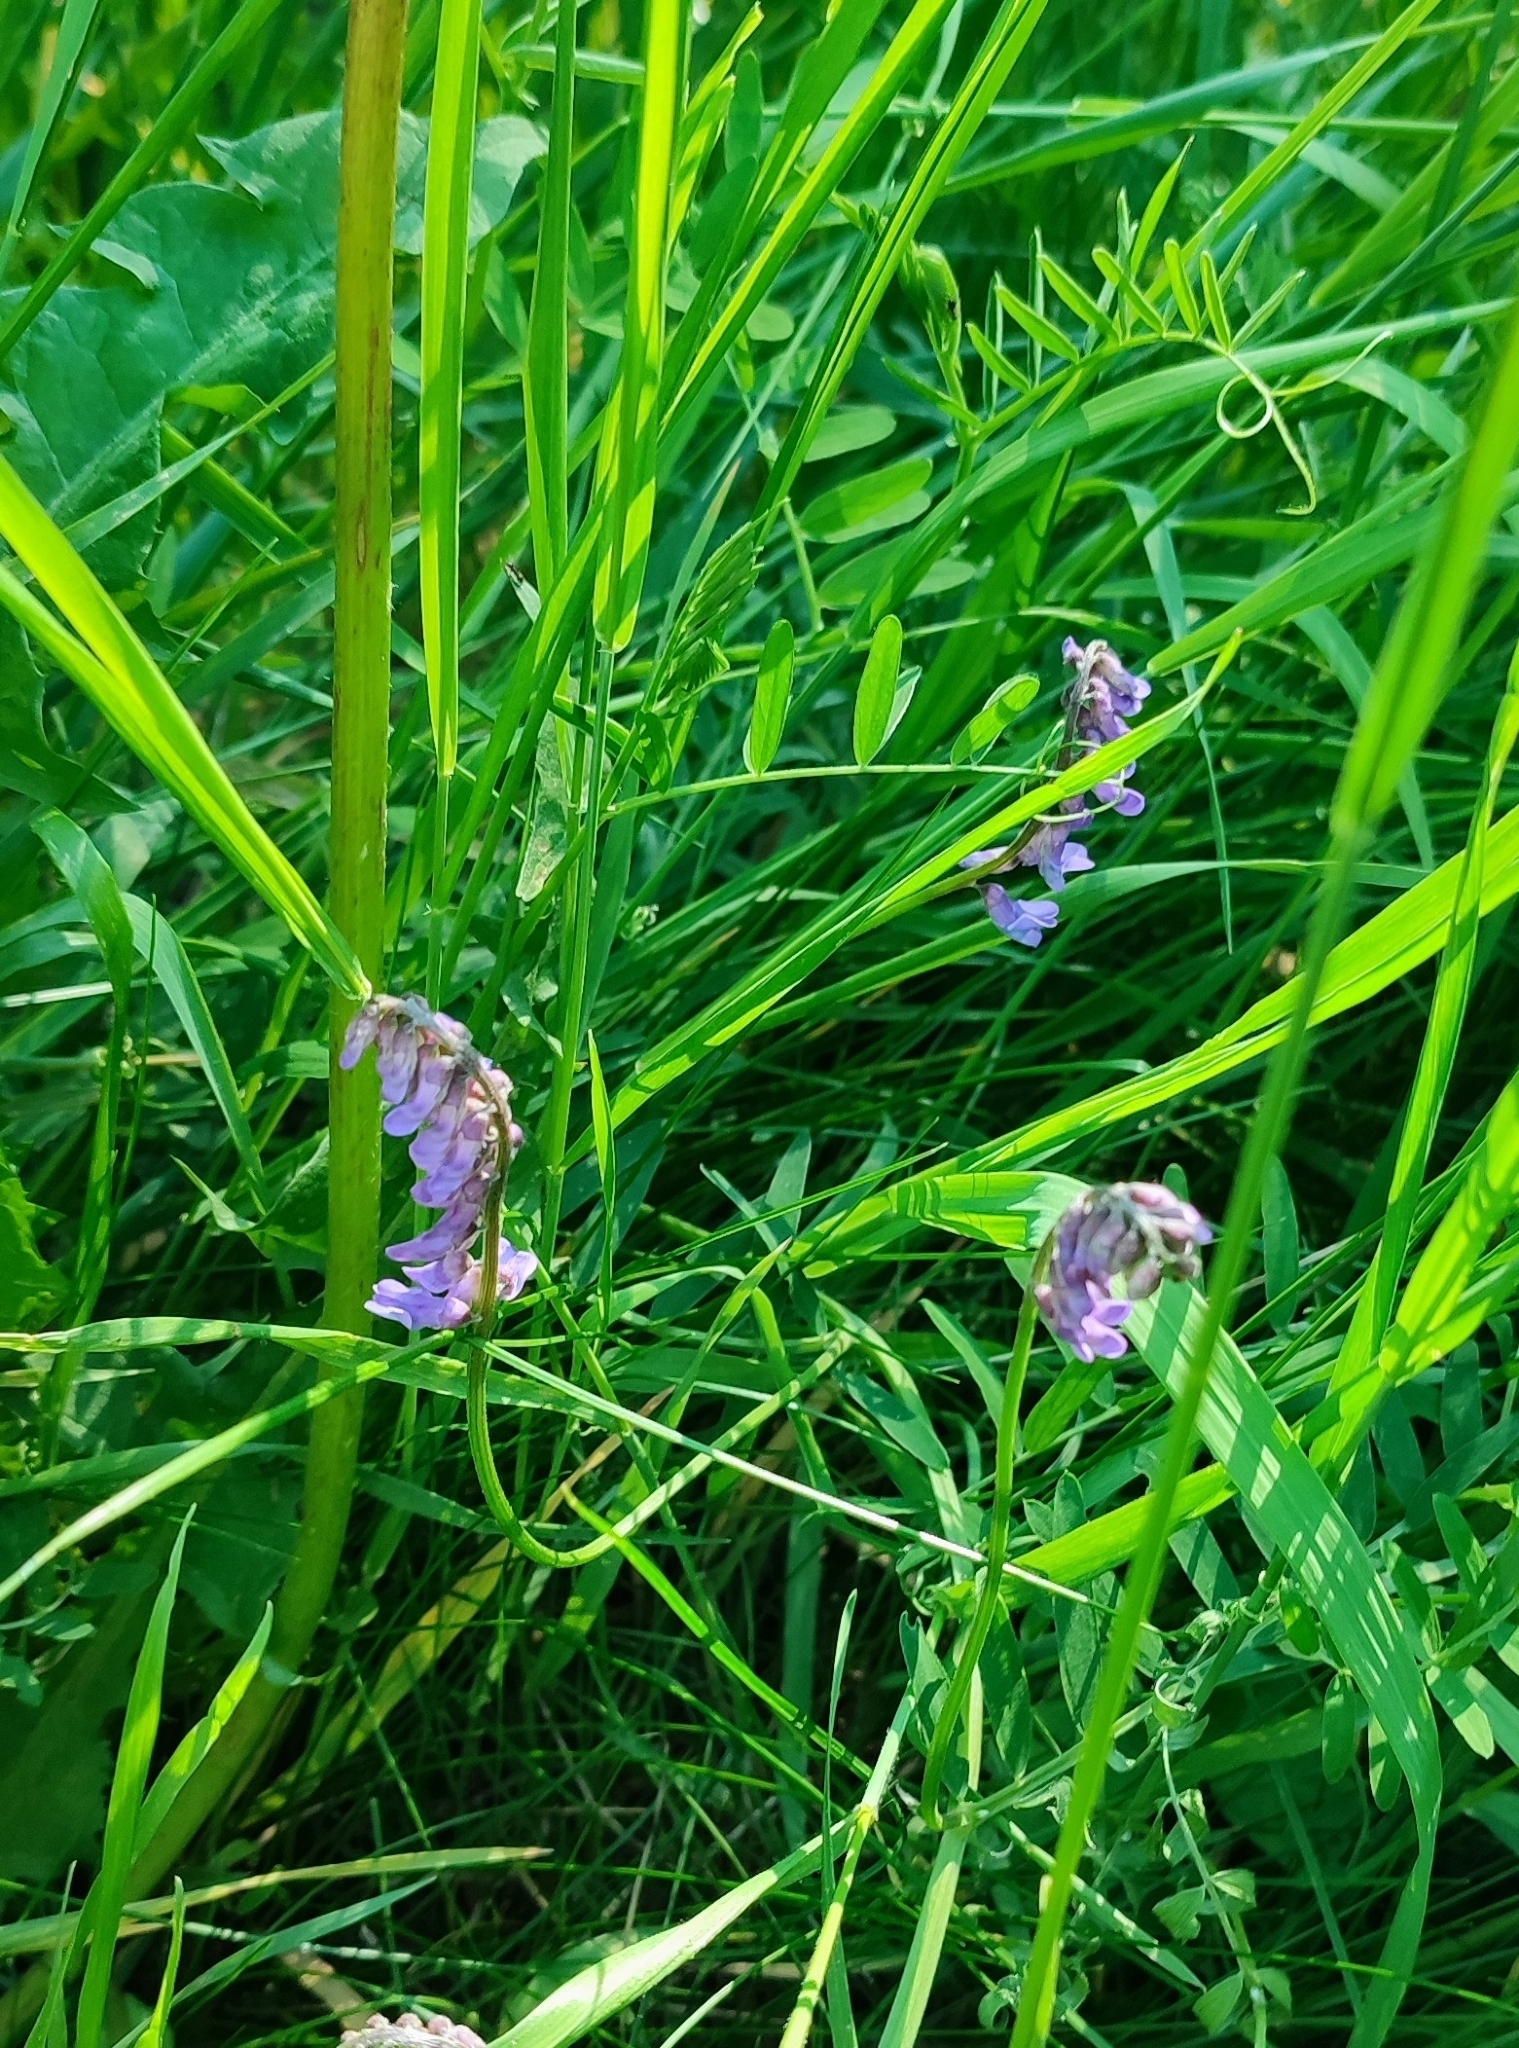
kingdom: Plantae
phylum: Tracheophyta
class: Magnoliopsida
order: Fabales
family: Fabaceae
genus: Vicia
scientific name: Vicia cracca
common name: Bird vetch
